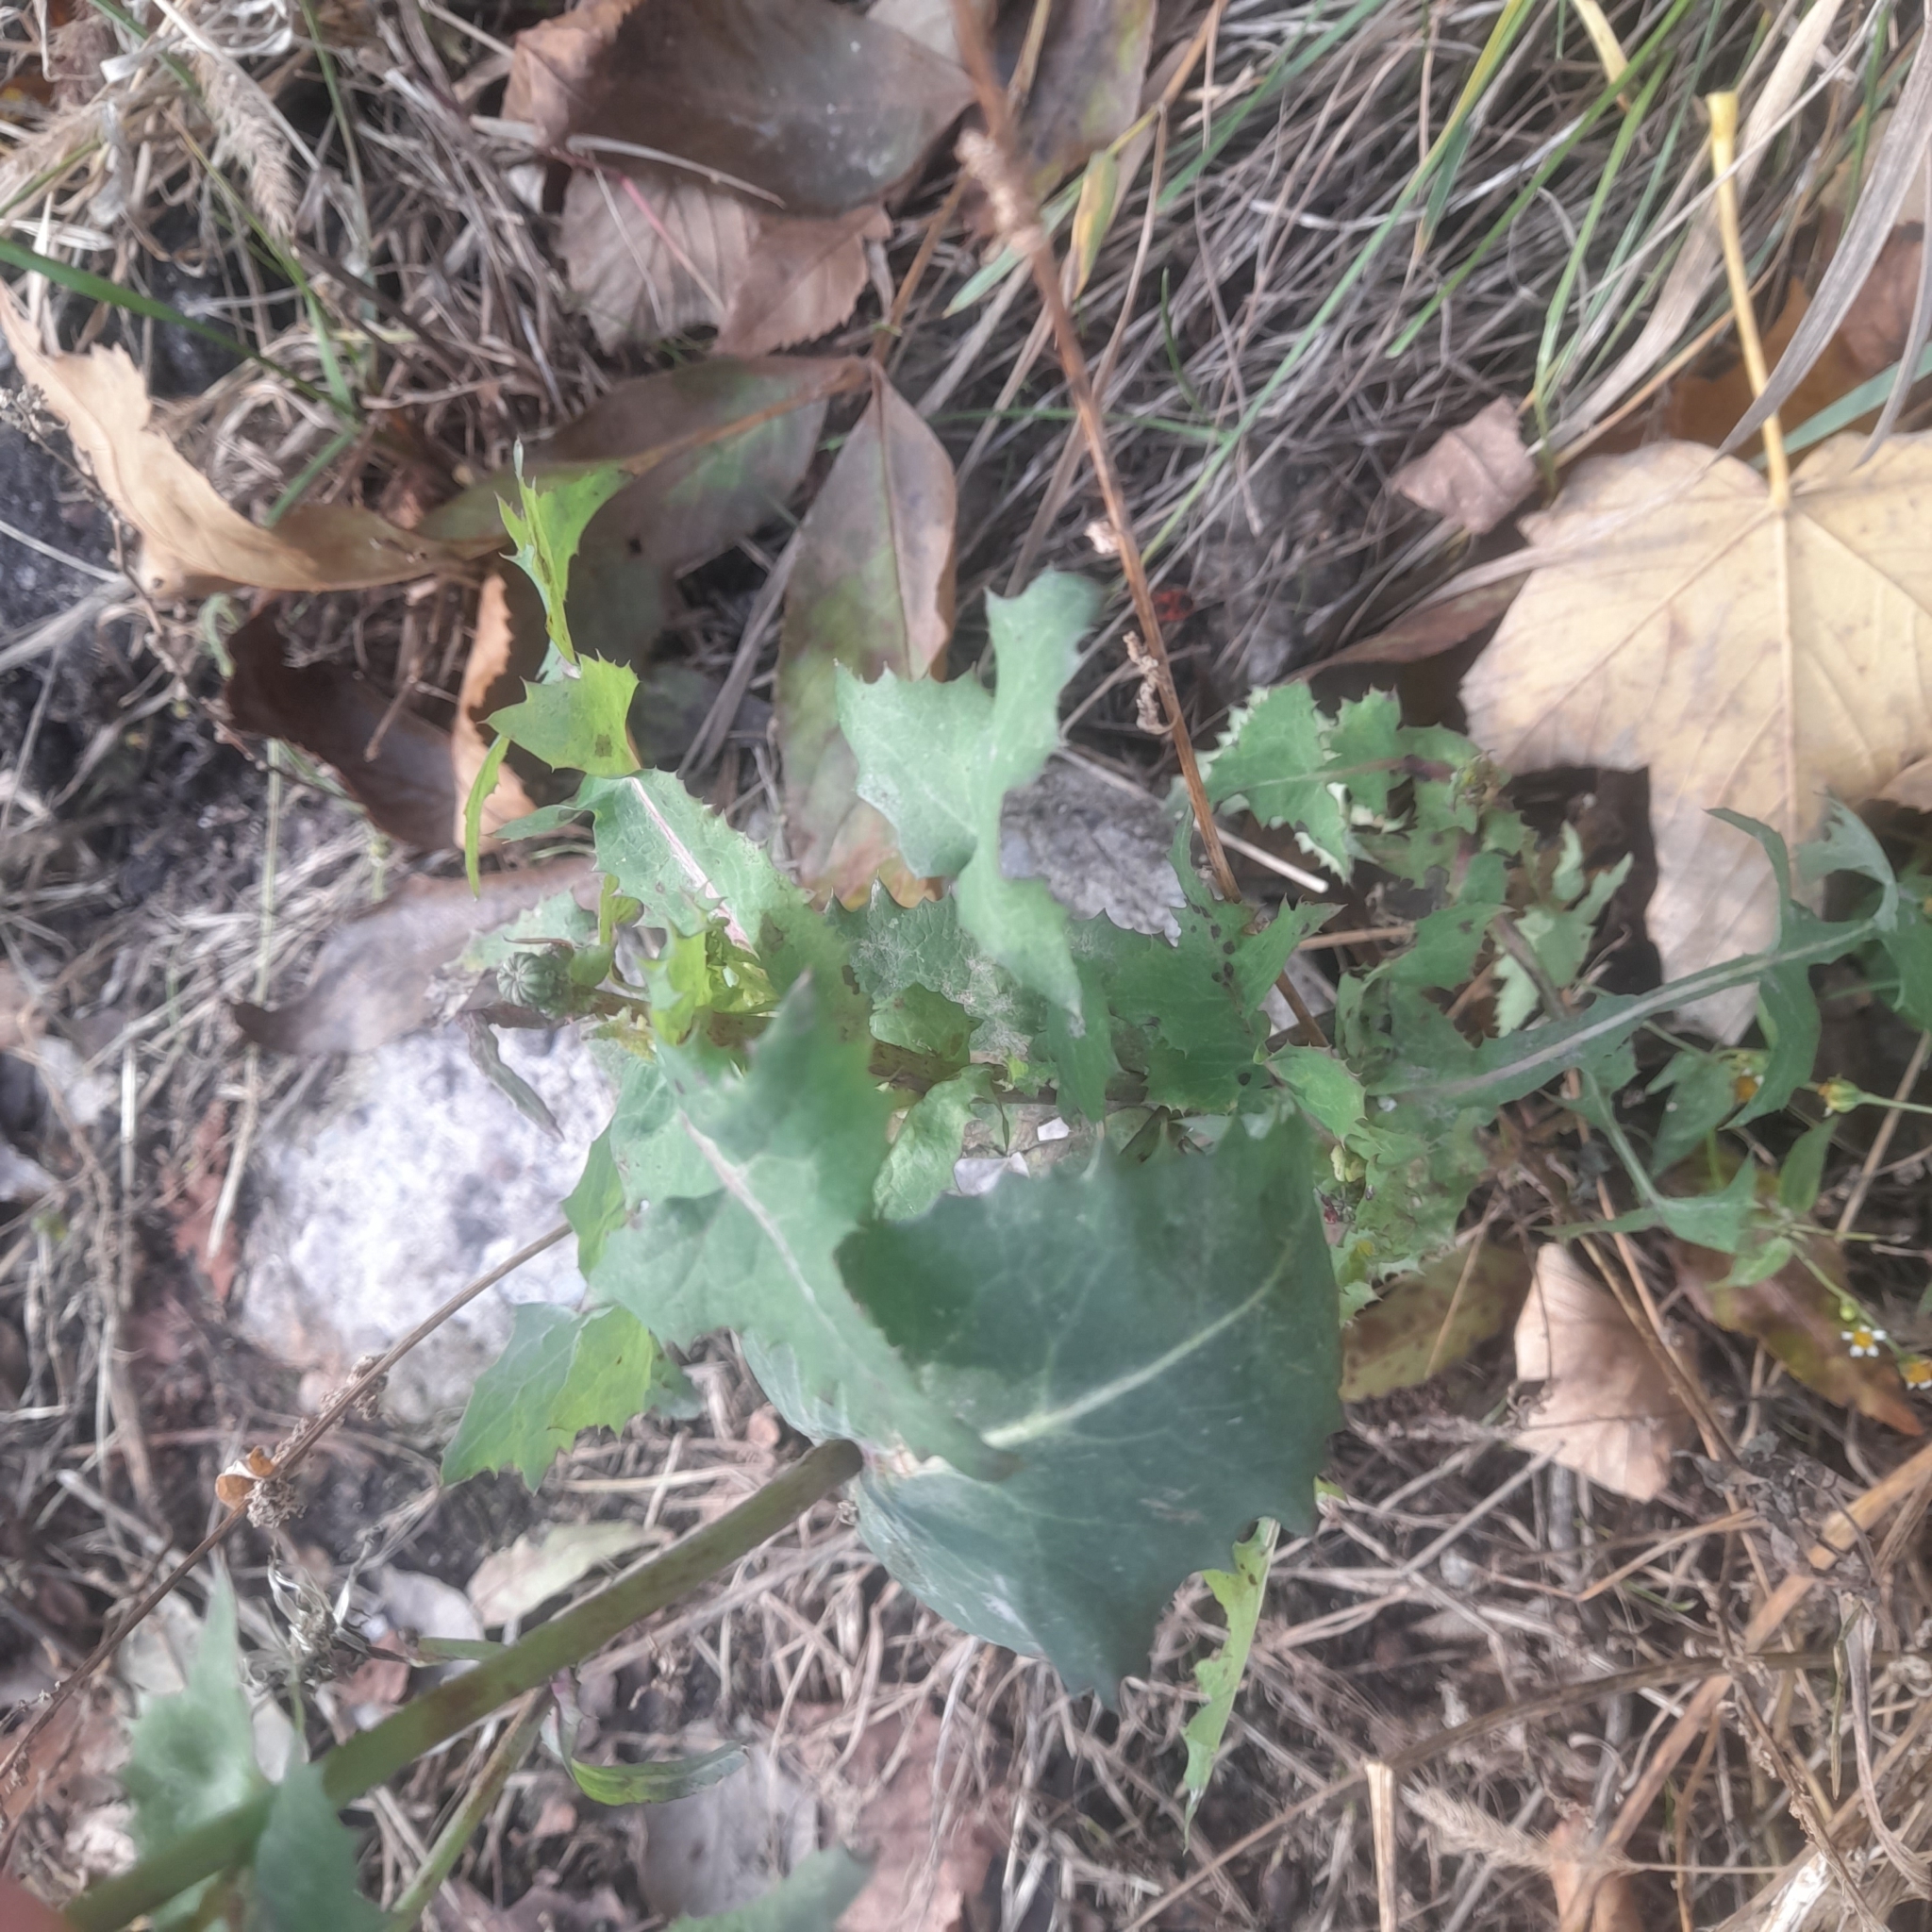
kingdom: Plantae
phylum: Tracheophyta
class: Magnoliopsida
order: Asterales
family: Asteraceae
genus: Sonchus
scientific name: Sonchus oleraceus
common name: Common sowthistle
